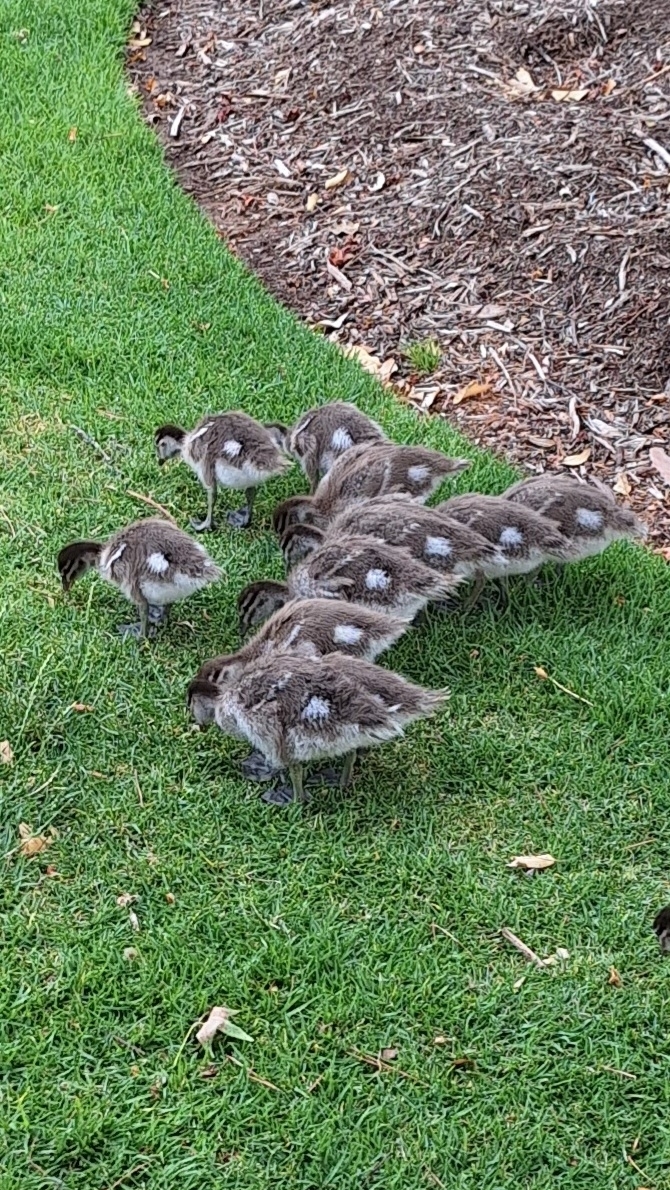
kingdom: Animalia
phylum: Chordata
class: Aves
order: Anseriformes
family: Anatidae
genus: Chenonetta
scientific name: Chenonetta jubata
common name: Maned duck
